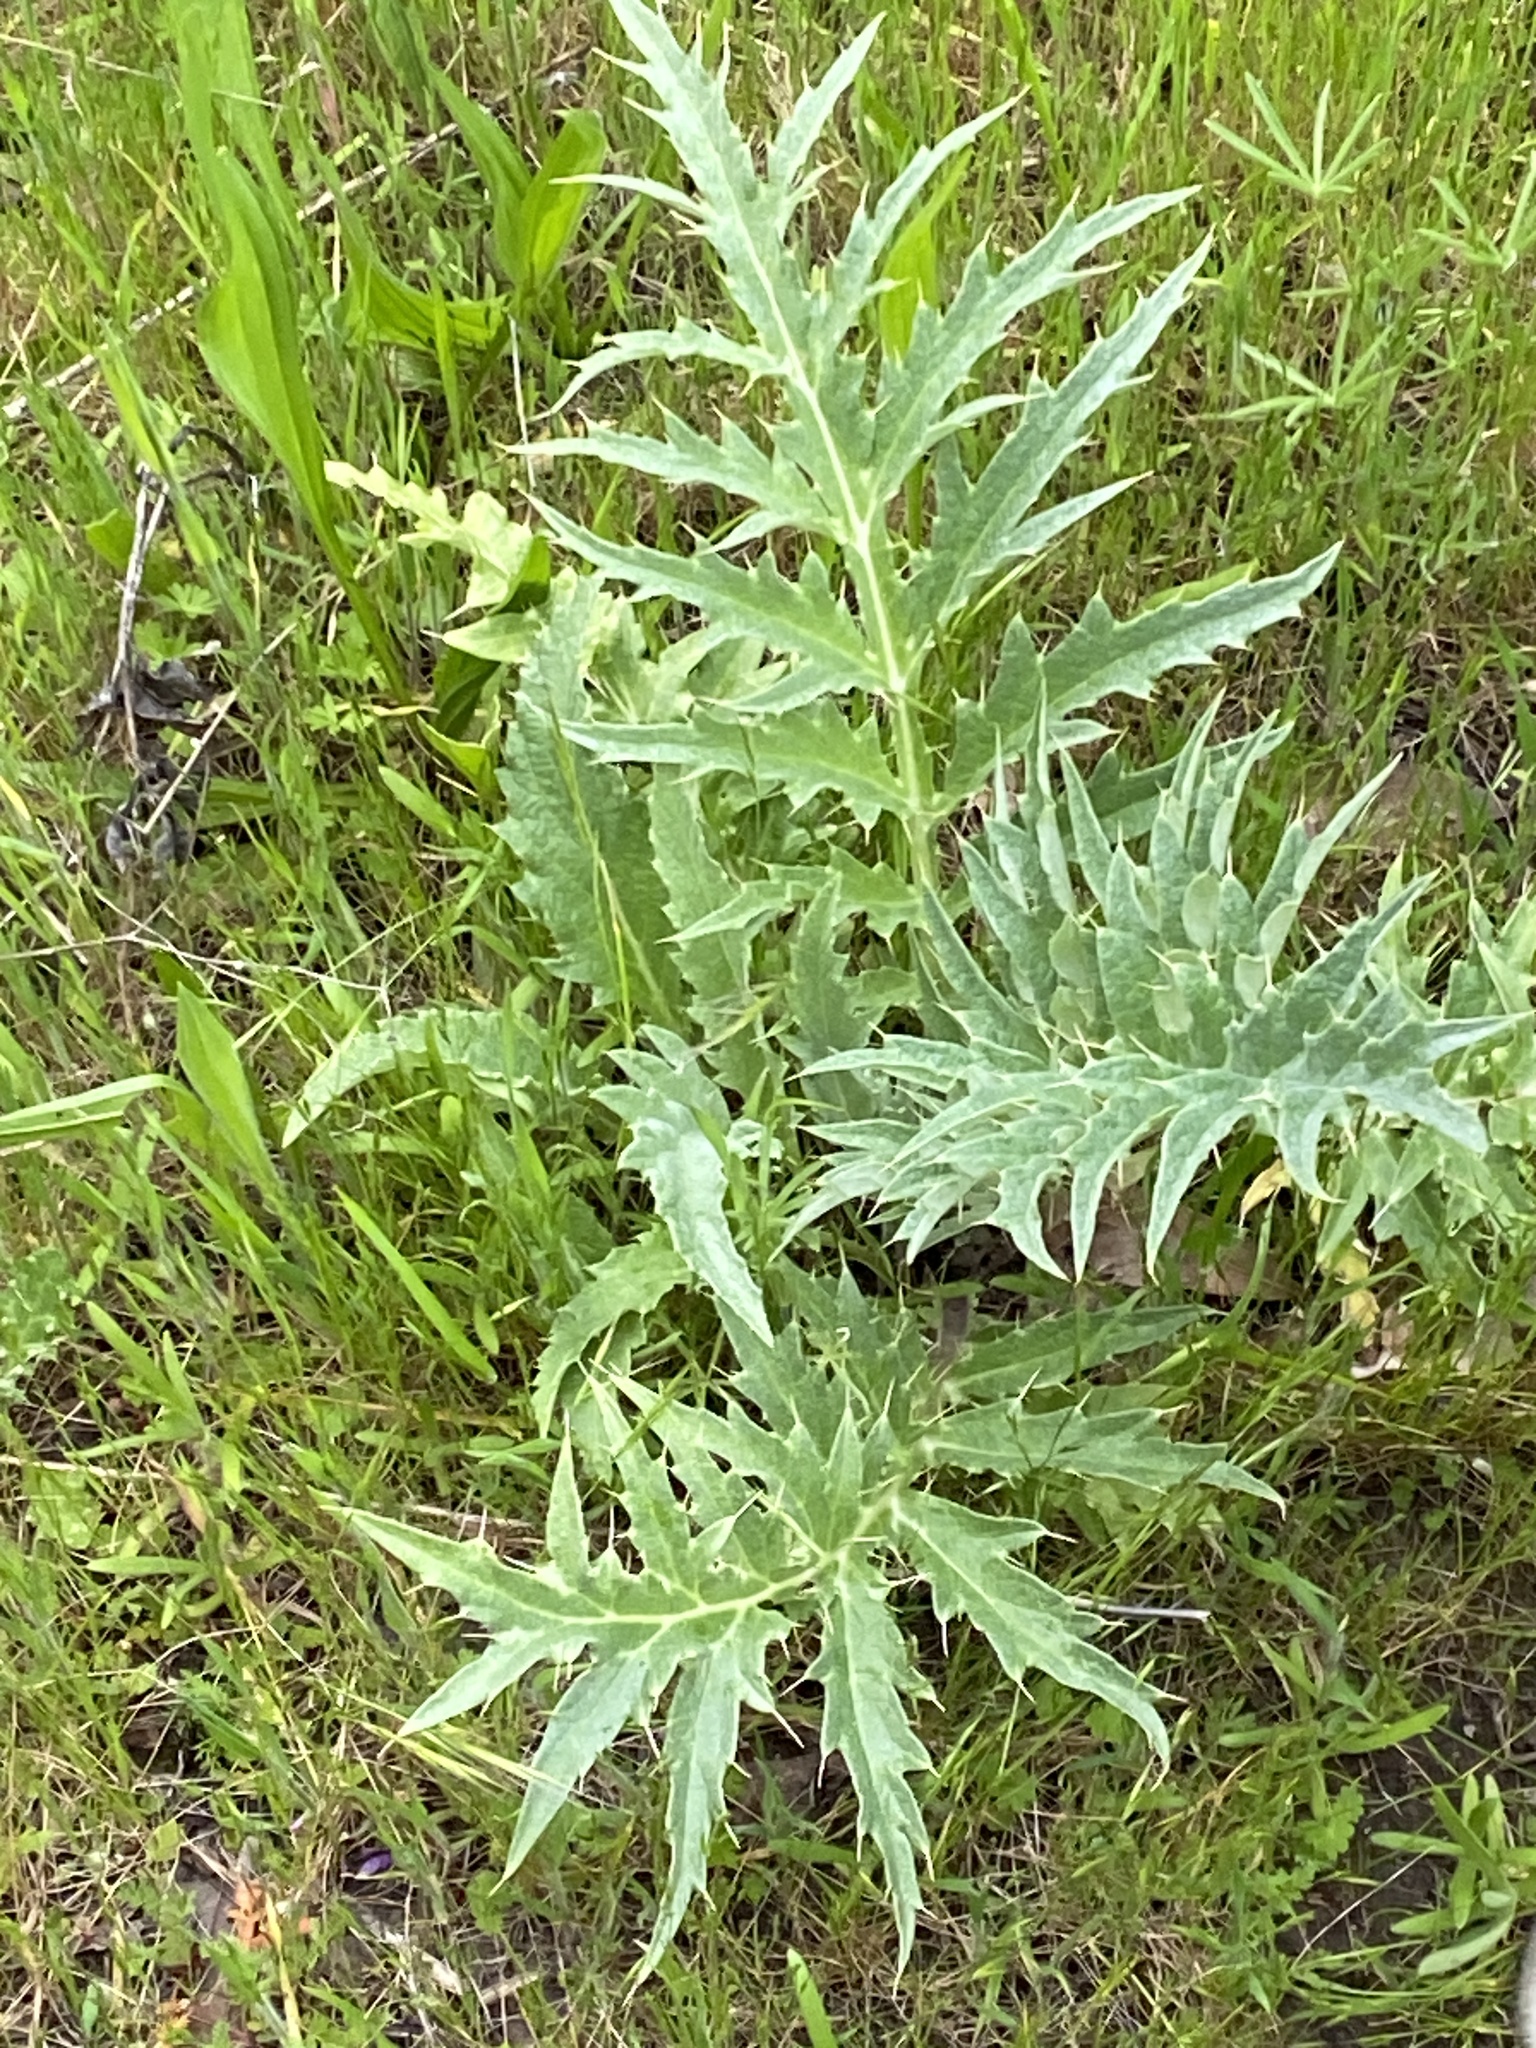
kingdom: Plantae
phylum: Tracheophyta
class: Magnoliopsida
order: Asterales
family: Asteraceae
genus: Cynara
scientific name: Cynara cardunculus
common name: Globe artichoke
